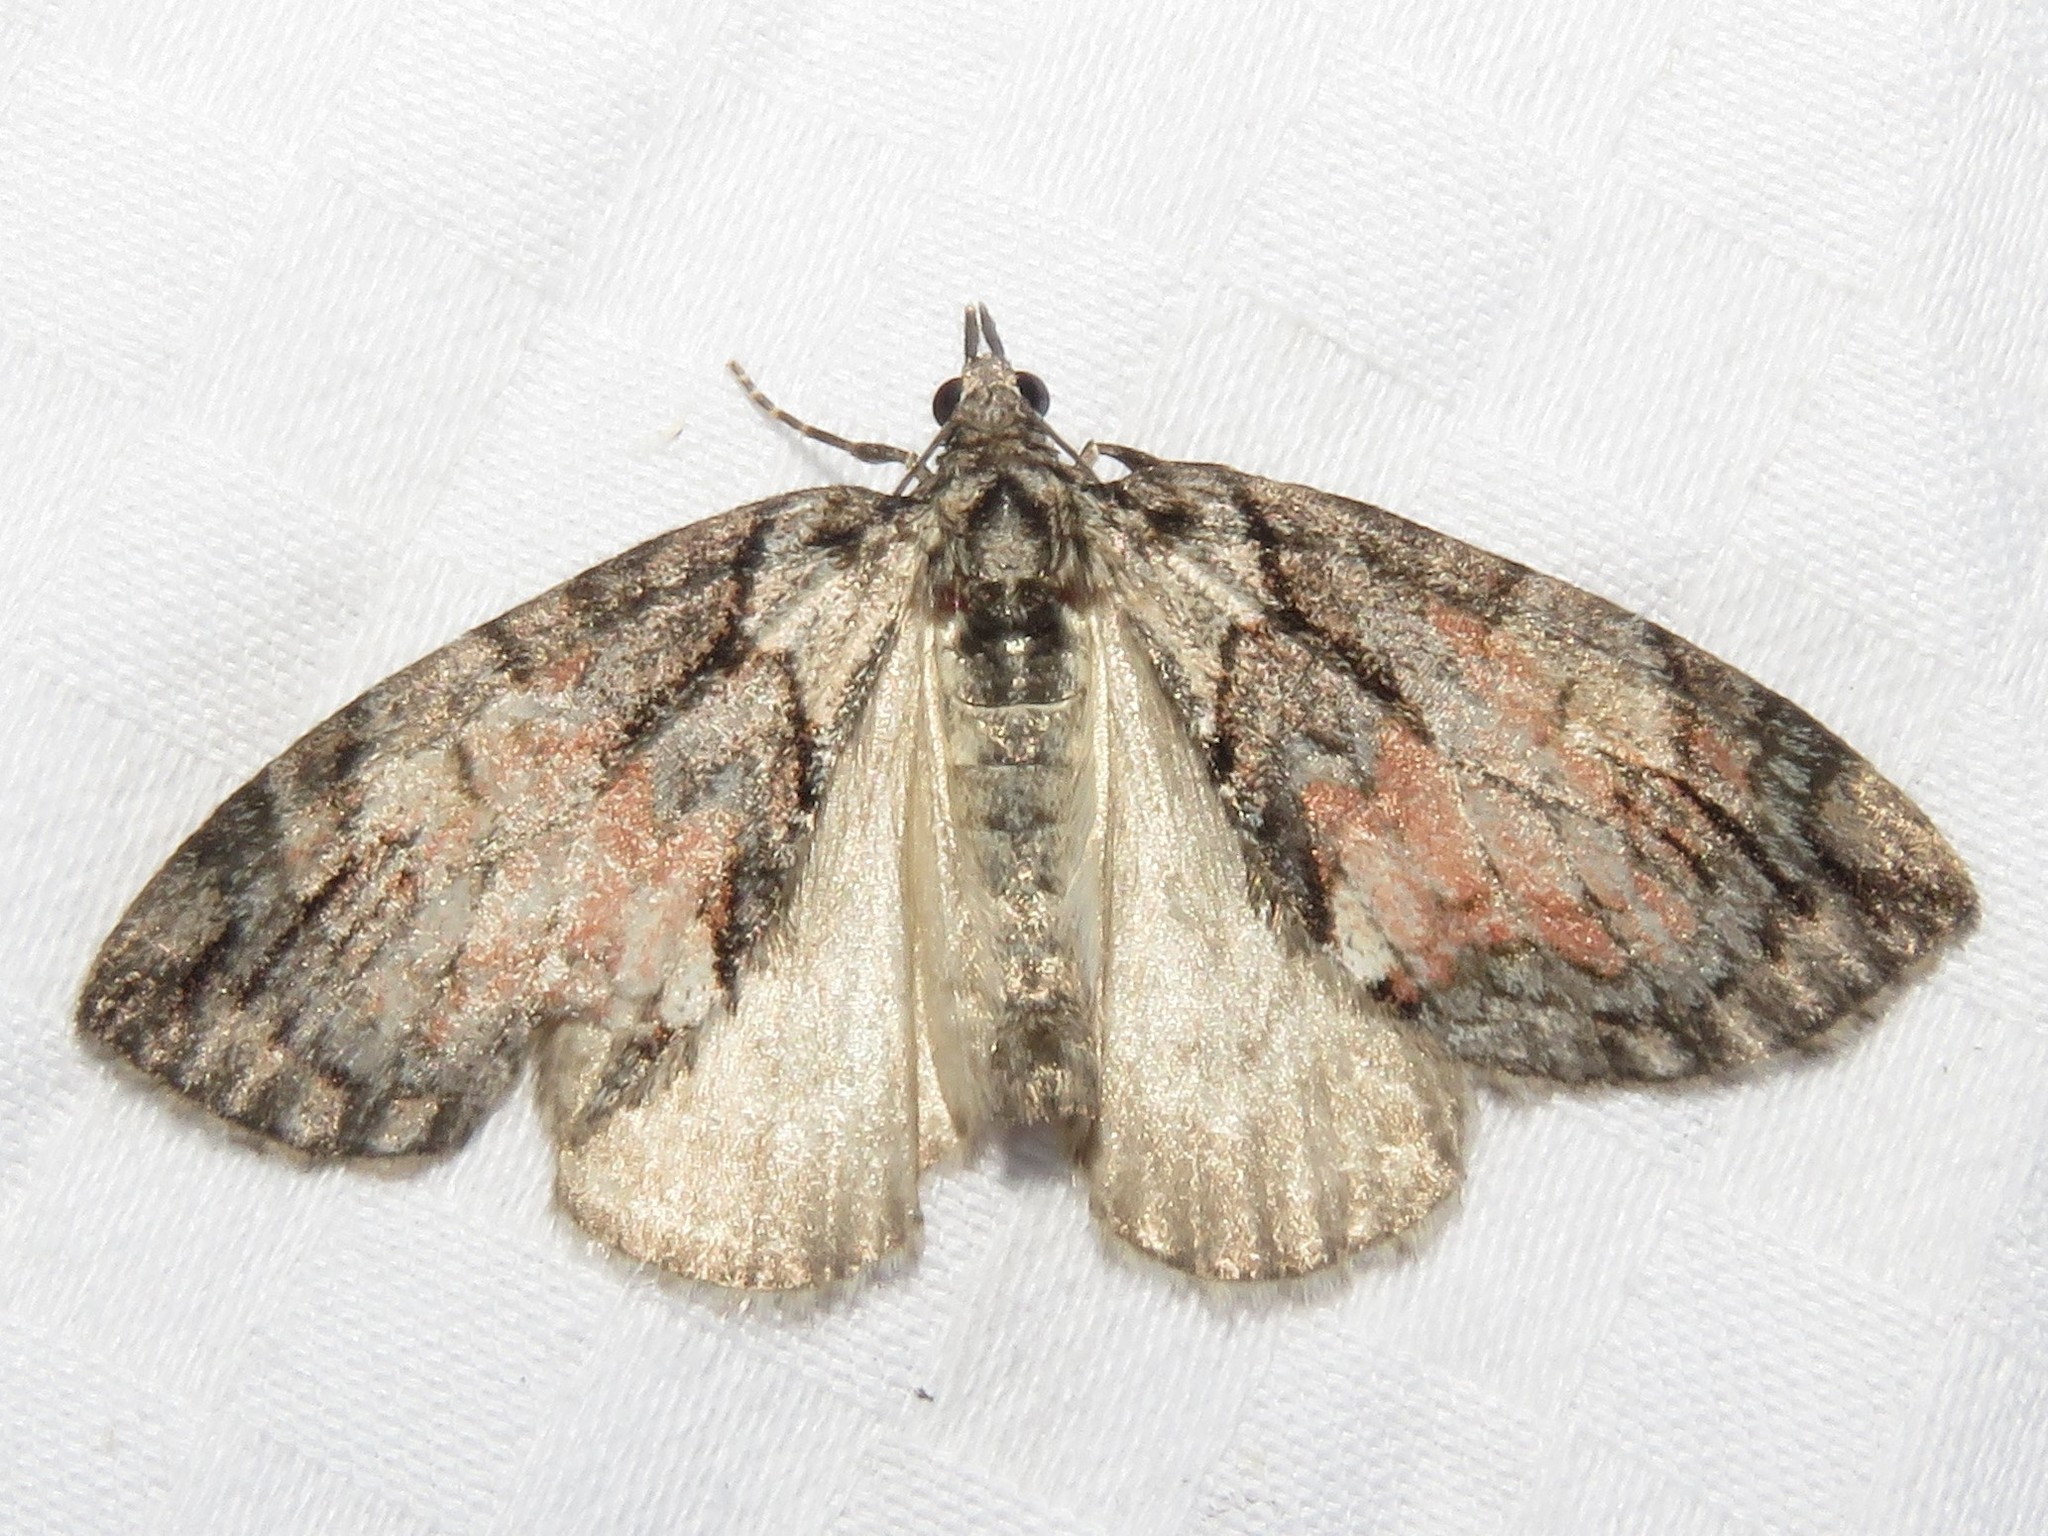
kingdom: Animalia
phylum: Arthropoda
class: Insecta
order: Lepidoptera
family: Geometridae
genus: Hydriomena
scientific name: Hydriomena perfracta
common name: Shattered hydriomena moth
